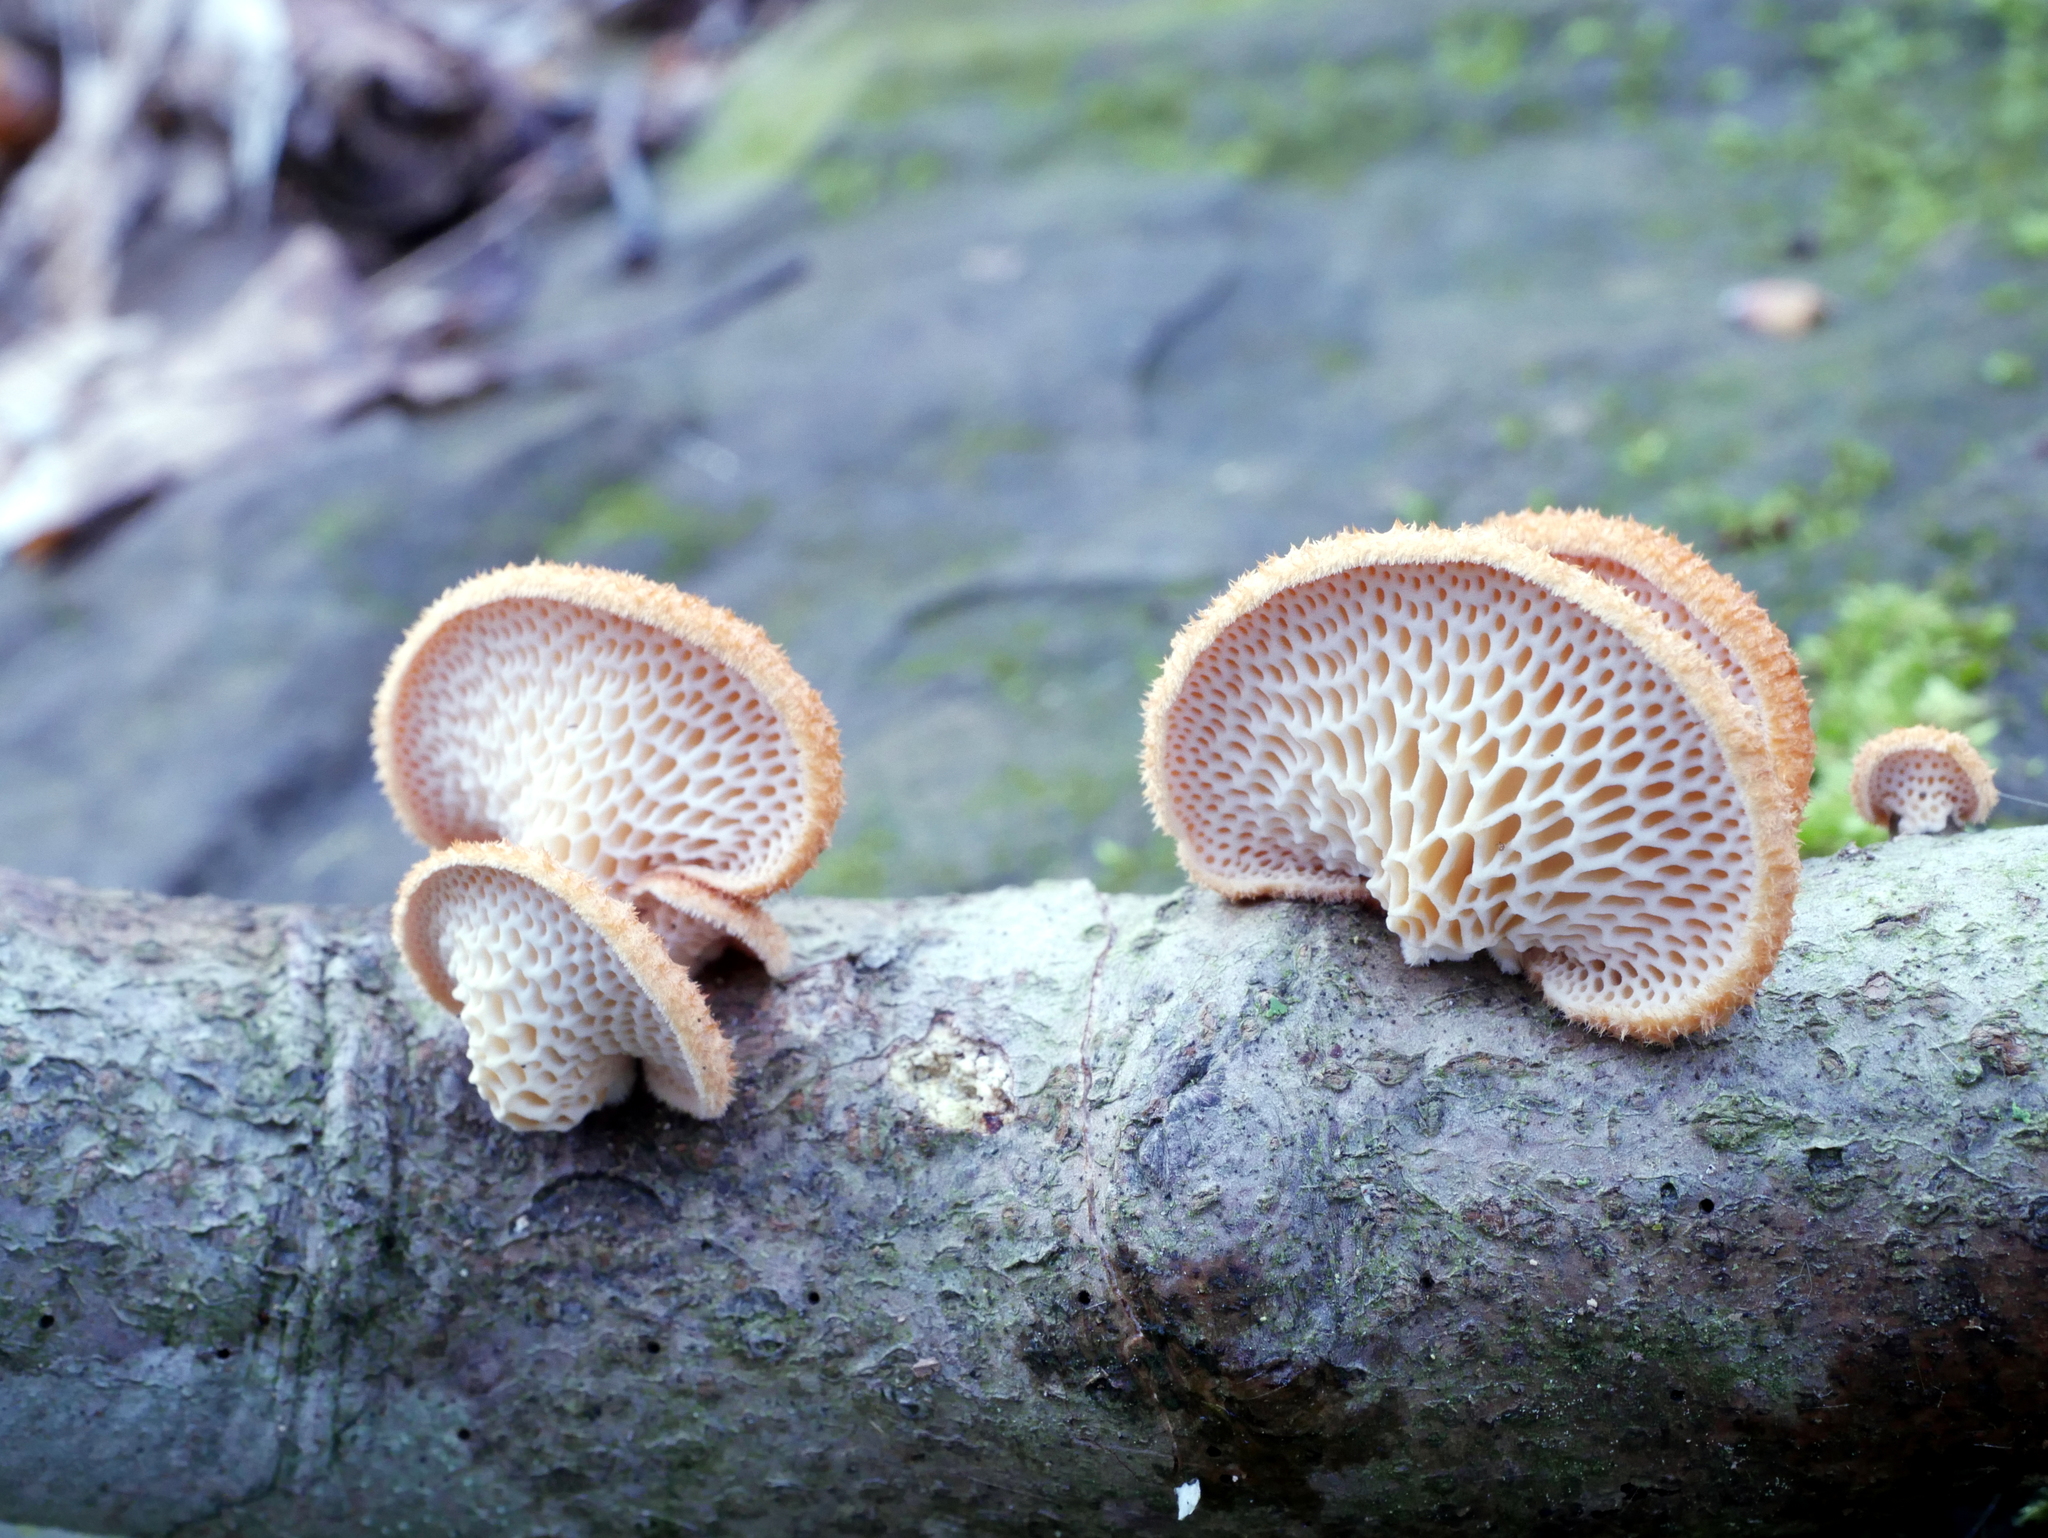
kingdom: Fungi
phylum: Basidiomycota
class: Agaricomycetes
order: Polyporales
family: Polyporaceae
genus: Neofavolus
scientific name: Neofavolus alveolaris
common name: Hexagonal-pored polypore
